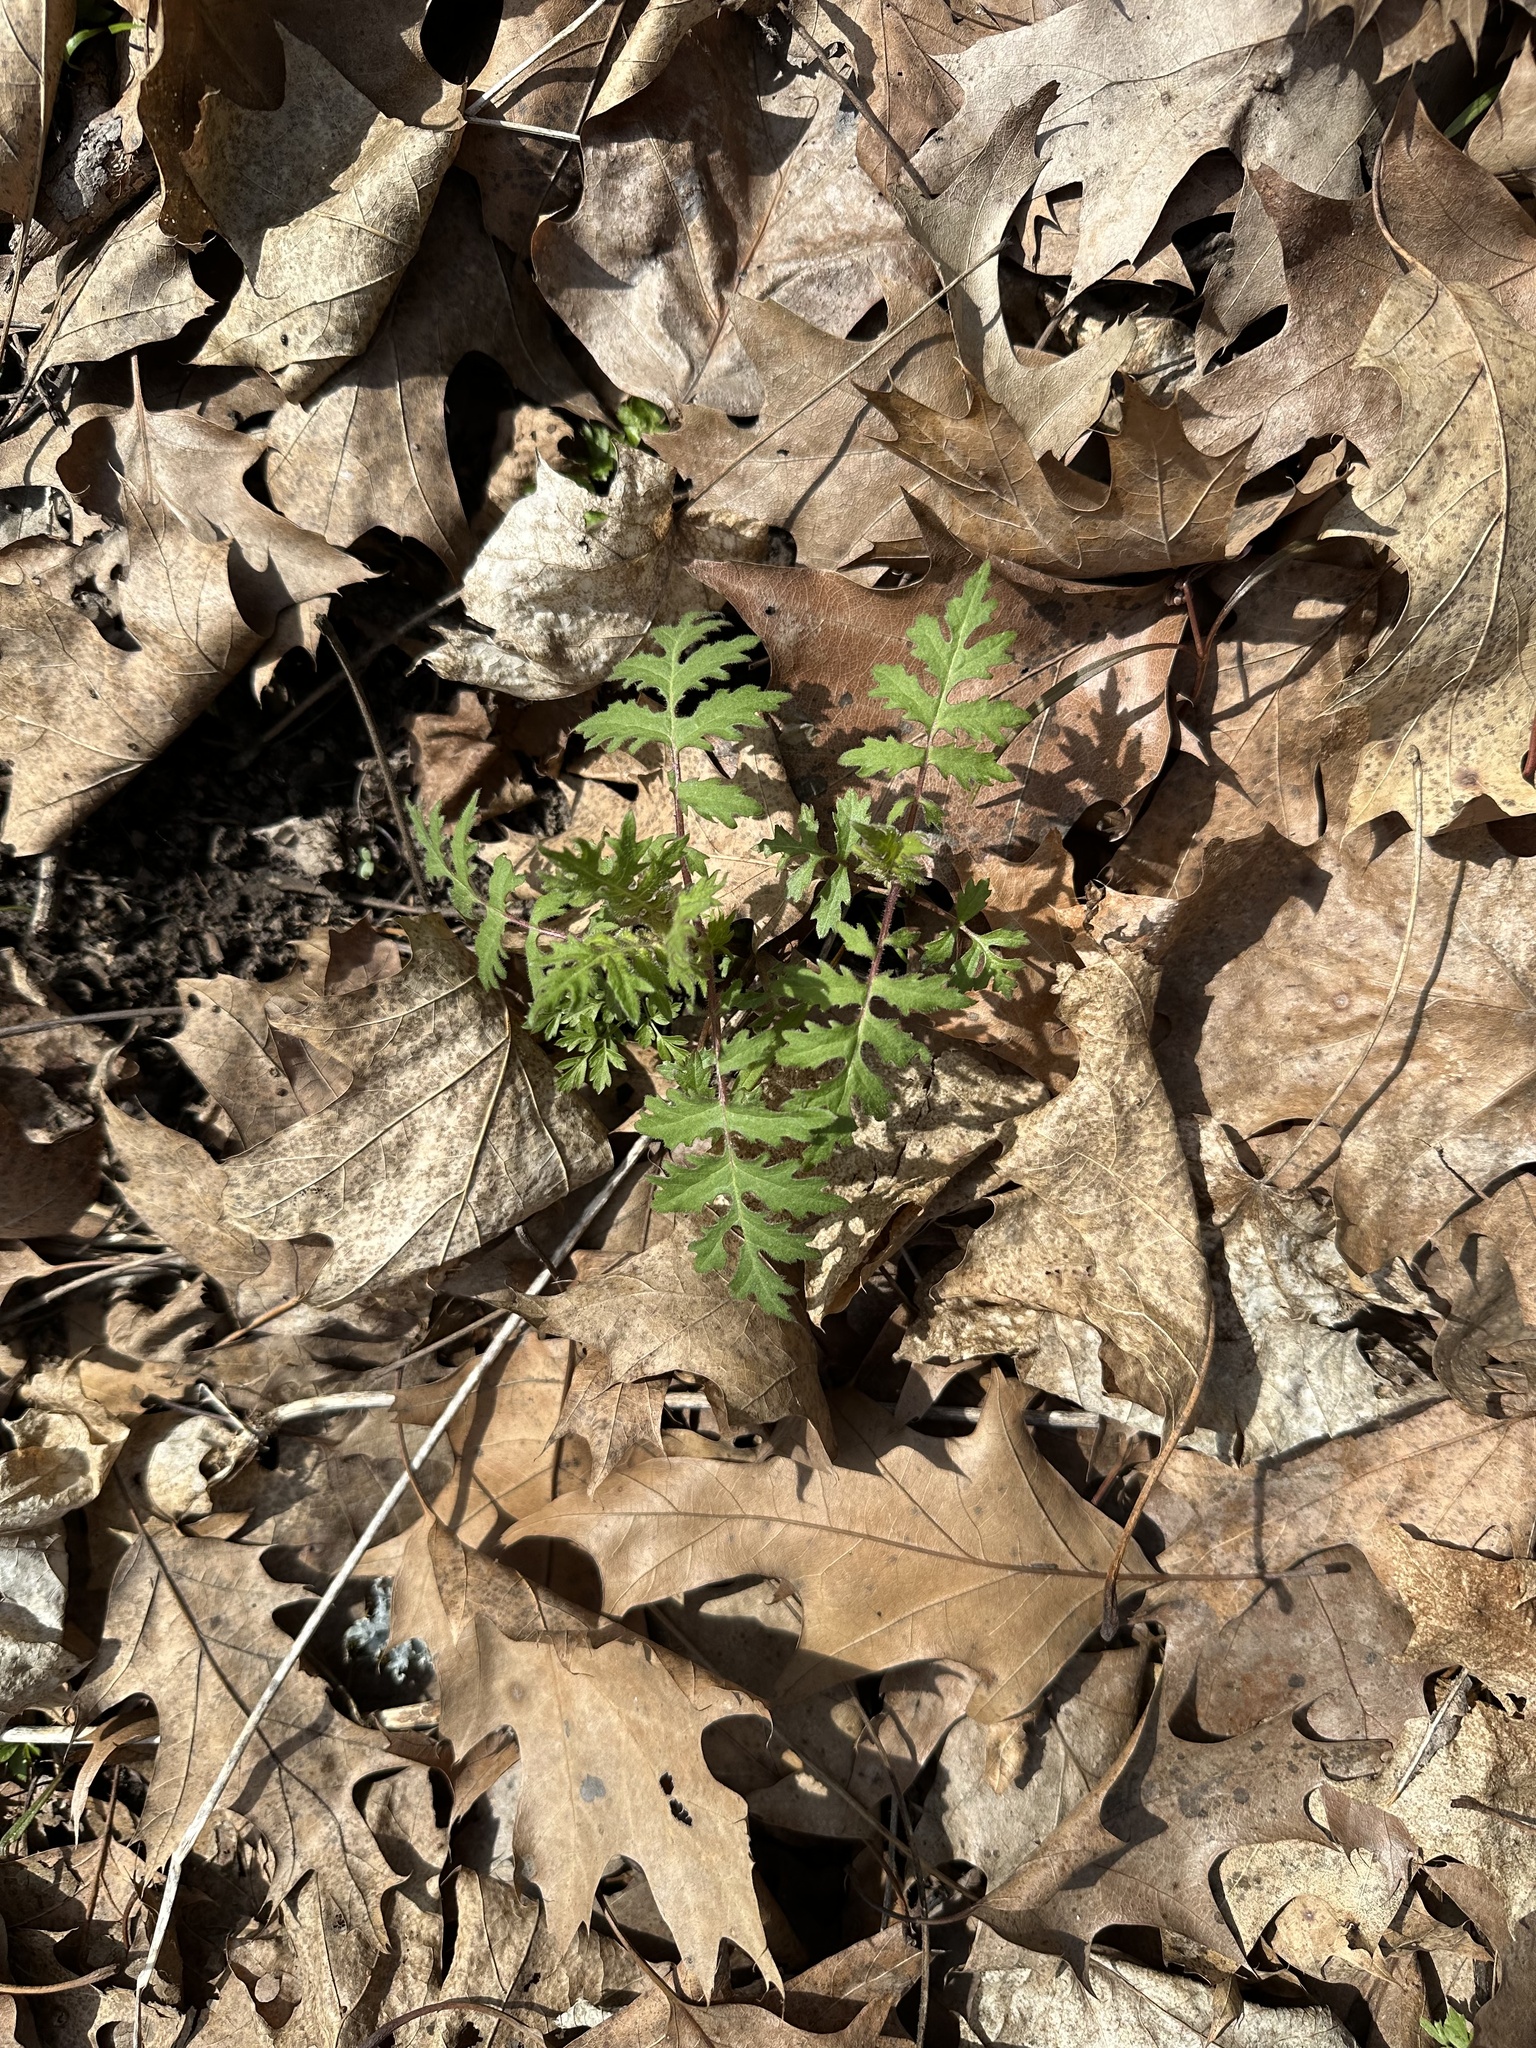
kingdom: Plantae
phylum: Tracheophyta
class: Magnoliopsida
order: Asterales
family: Asteraceae
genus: Polymnia
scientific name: Polymnia canadensis
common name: Pale-flowered leafcup
